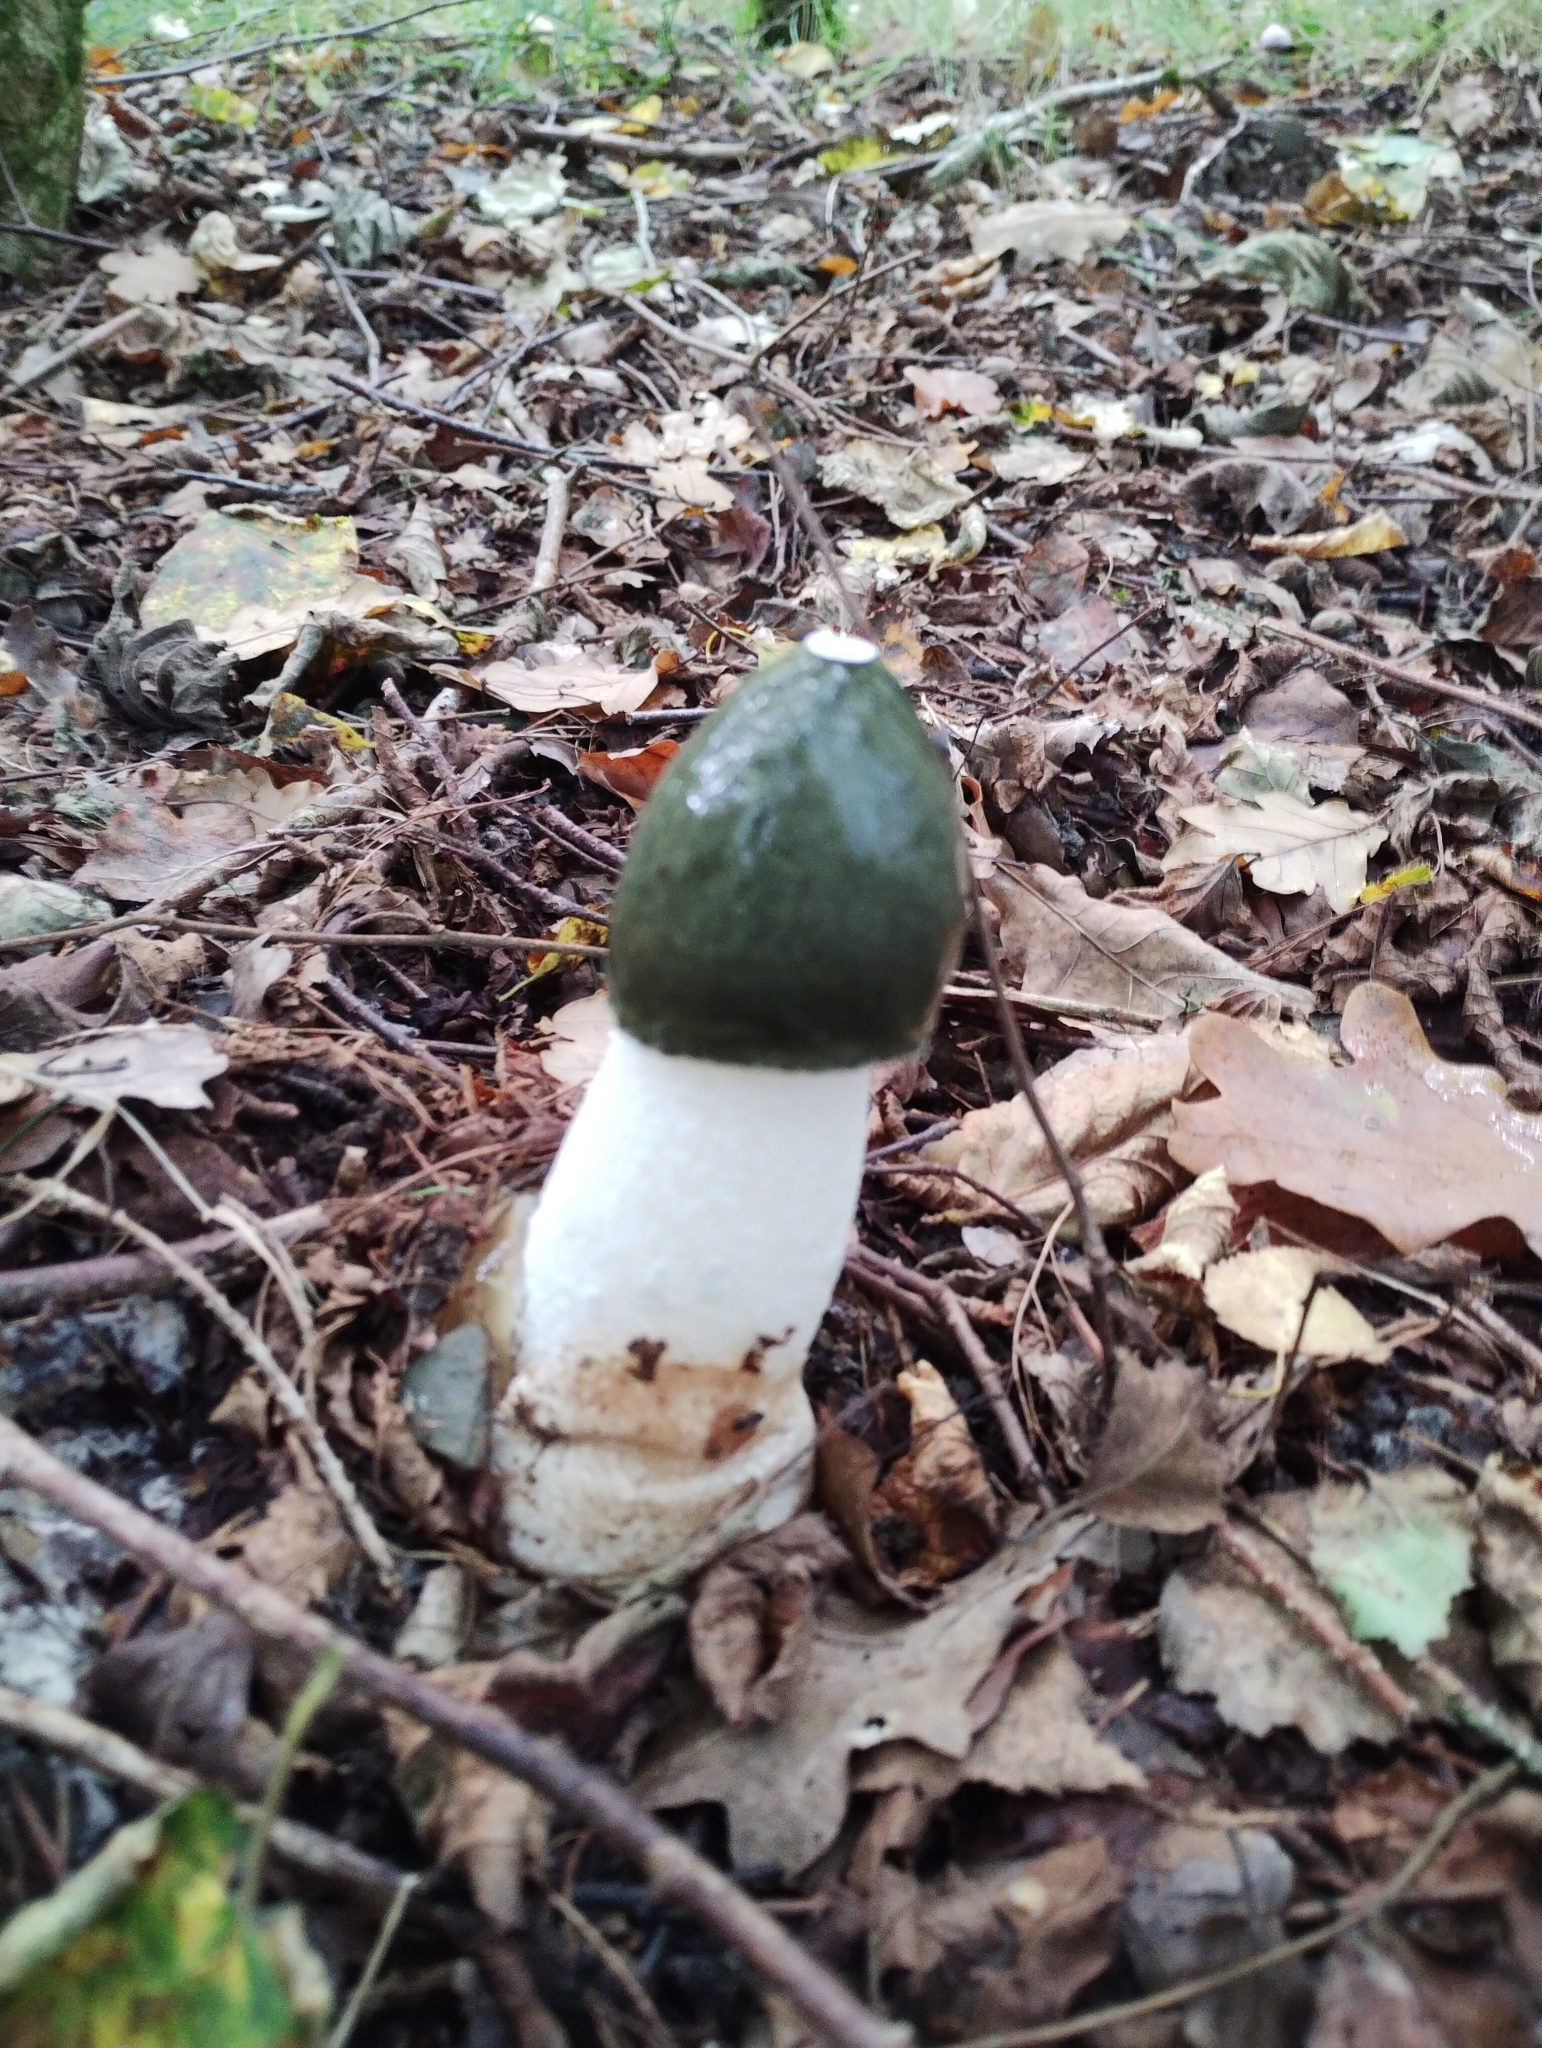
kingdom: Fungi
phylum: Basidiomycota
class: Agaricomycetes
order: Phallales
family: Phallaceae
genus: Phallus
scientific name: Phallus impudicus
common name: Common stinkhorn
